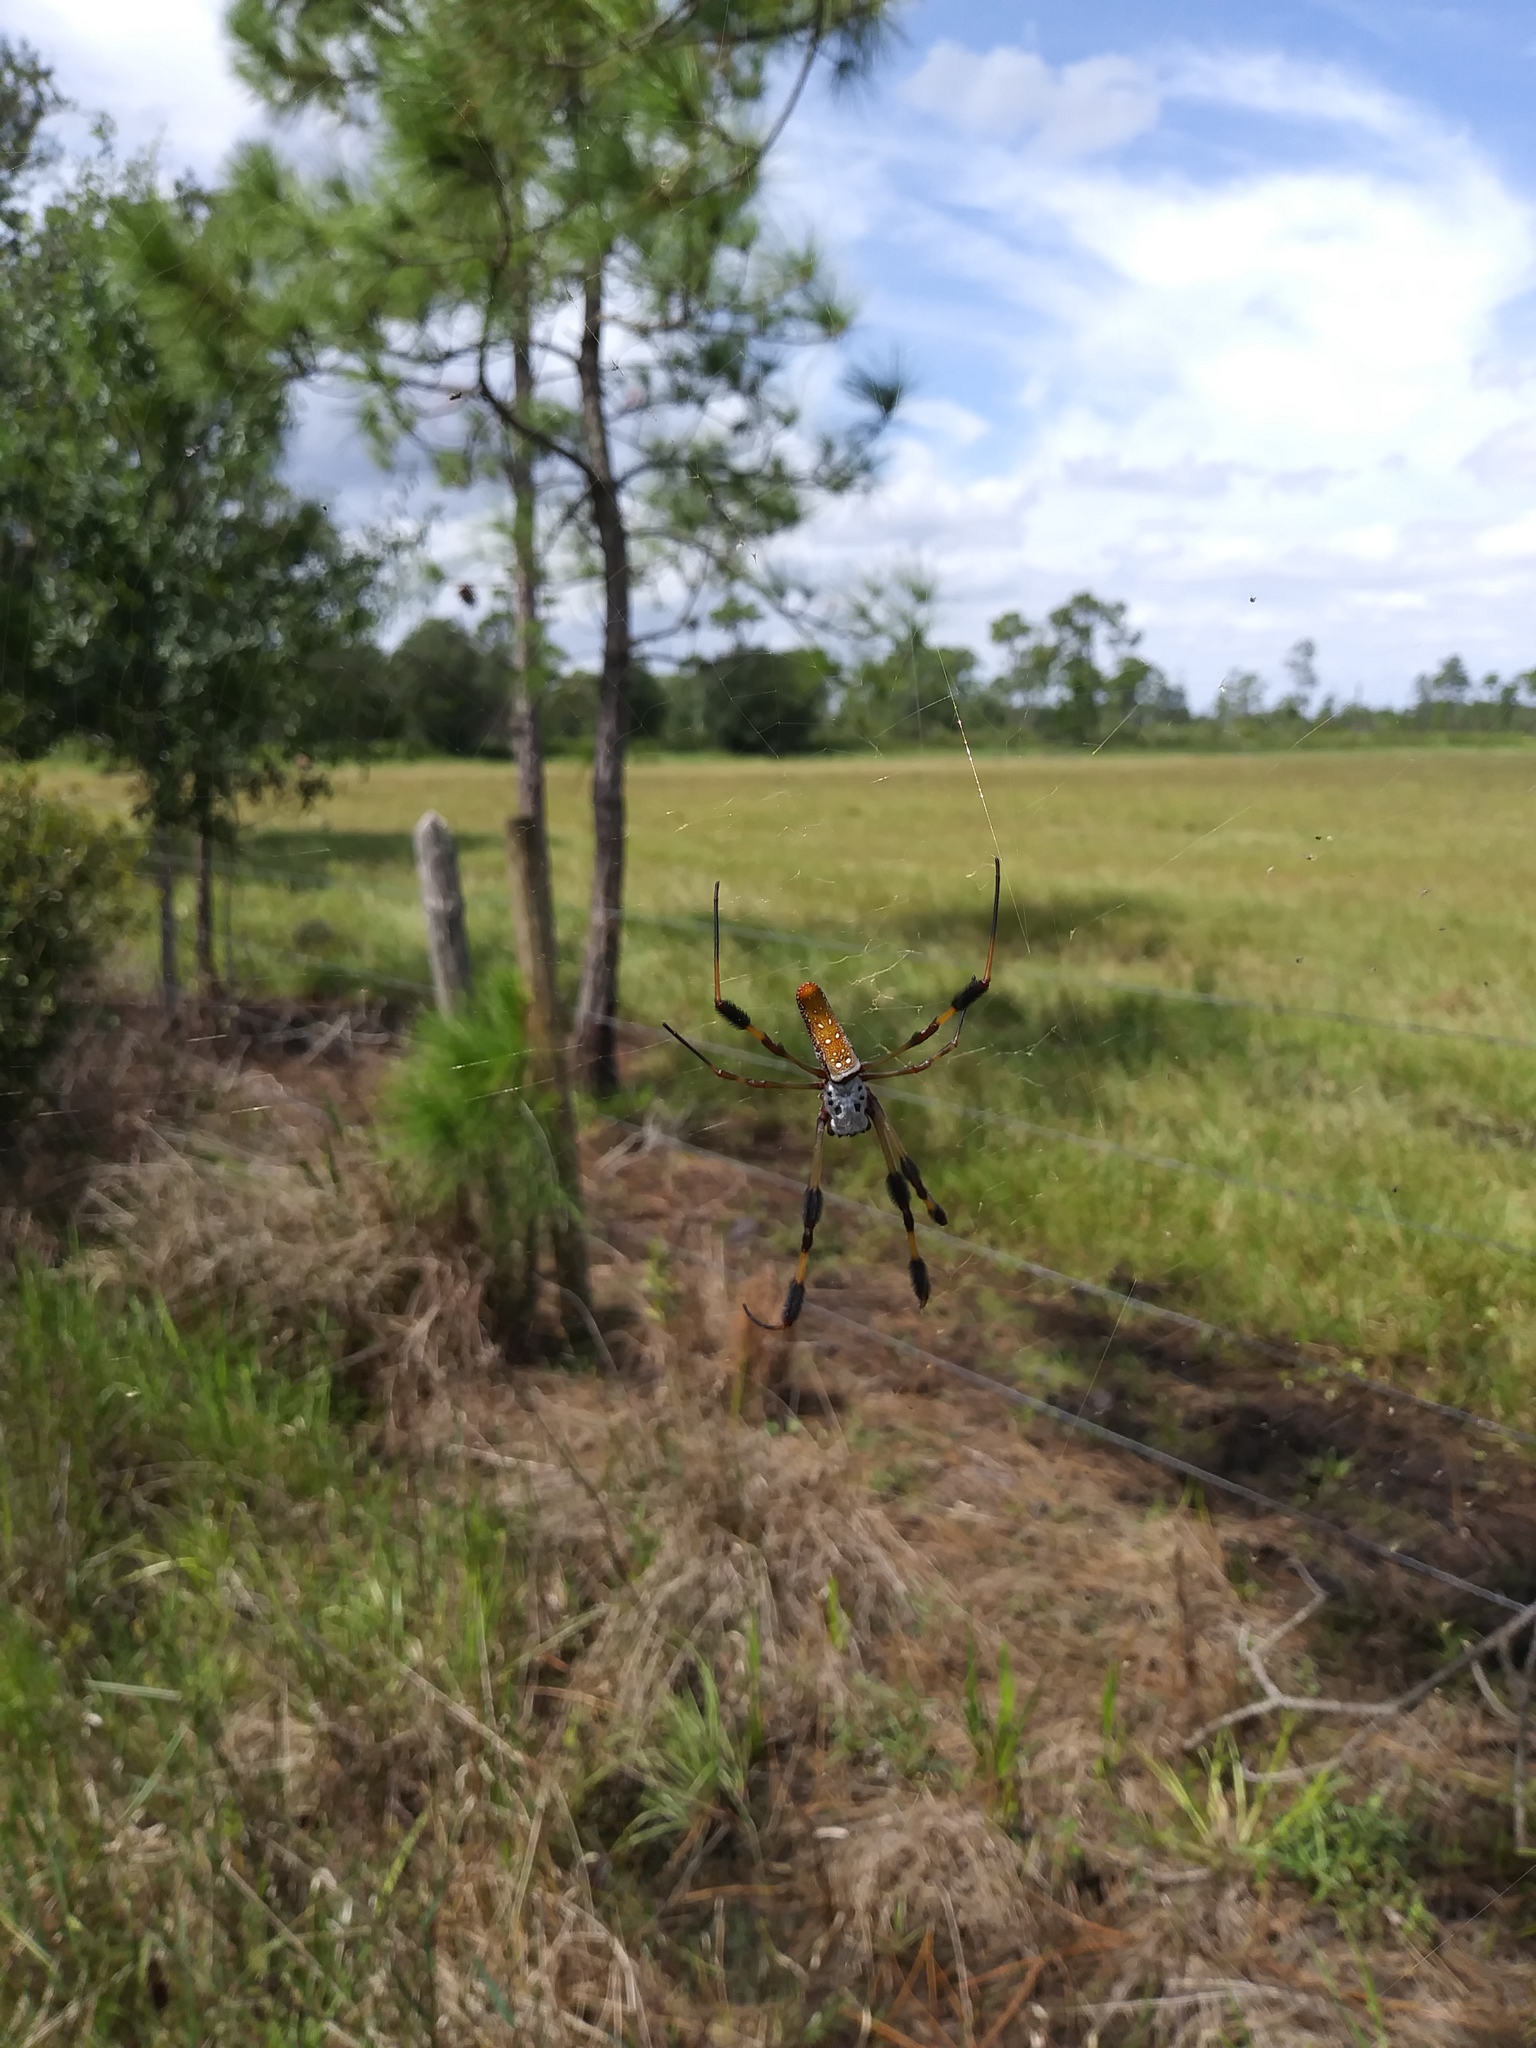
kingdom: Animalia
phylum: Arthropoda
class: Arachnida
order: Araneae
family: Araneidae
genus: Trichonephila
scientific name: Trichonephila clavipes
